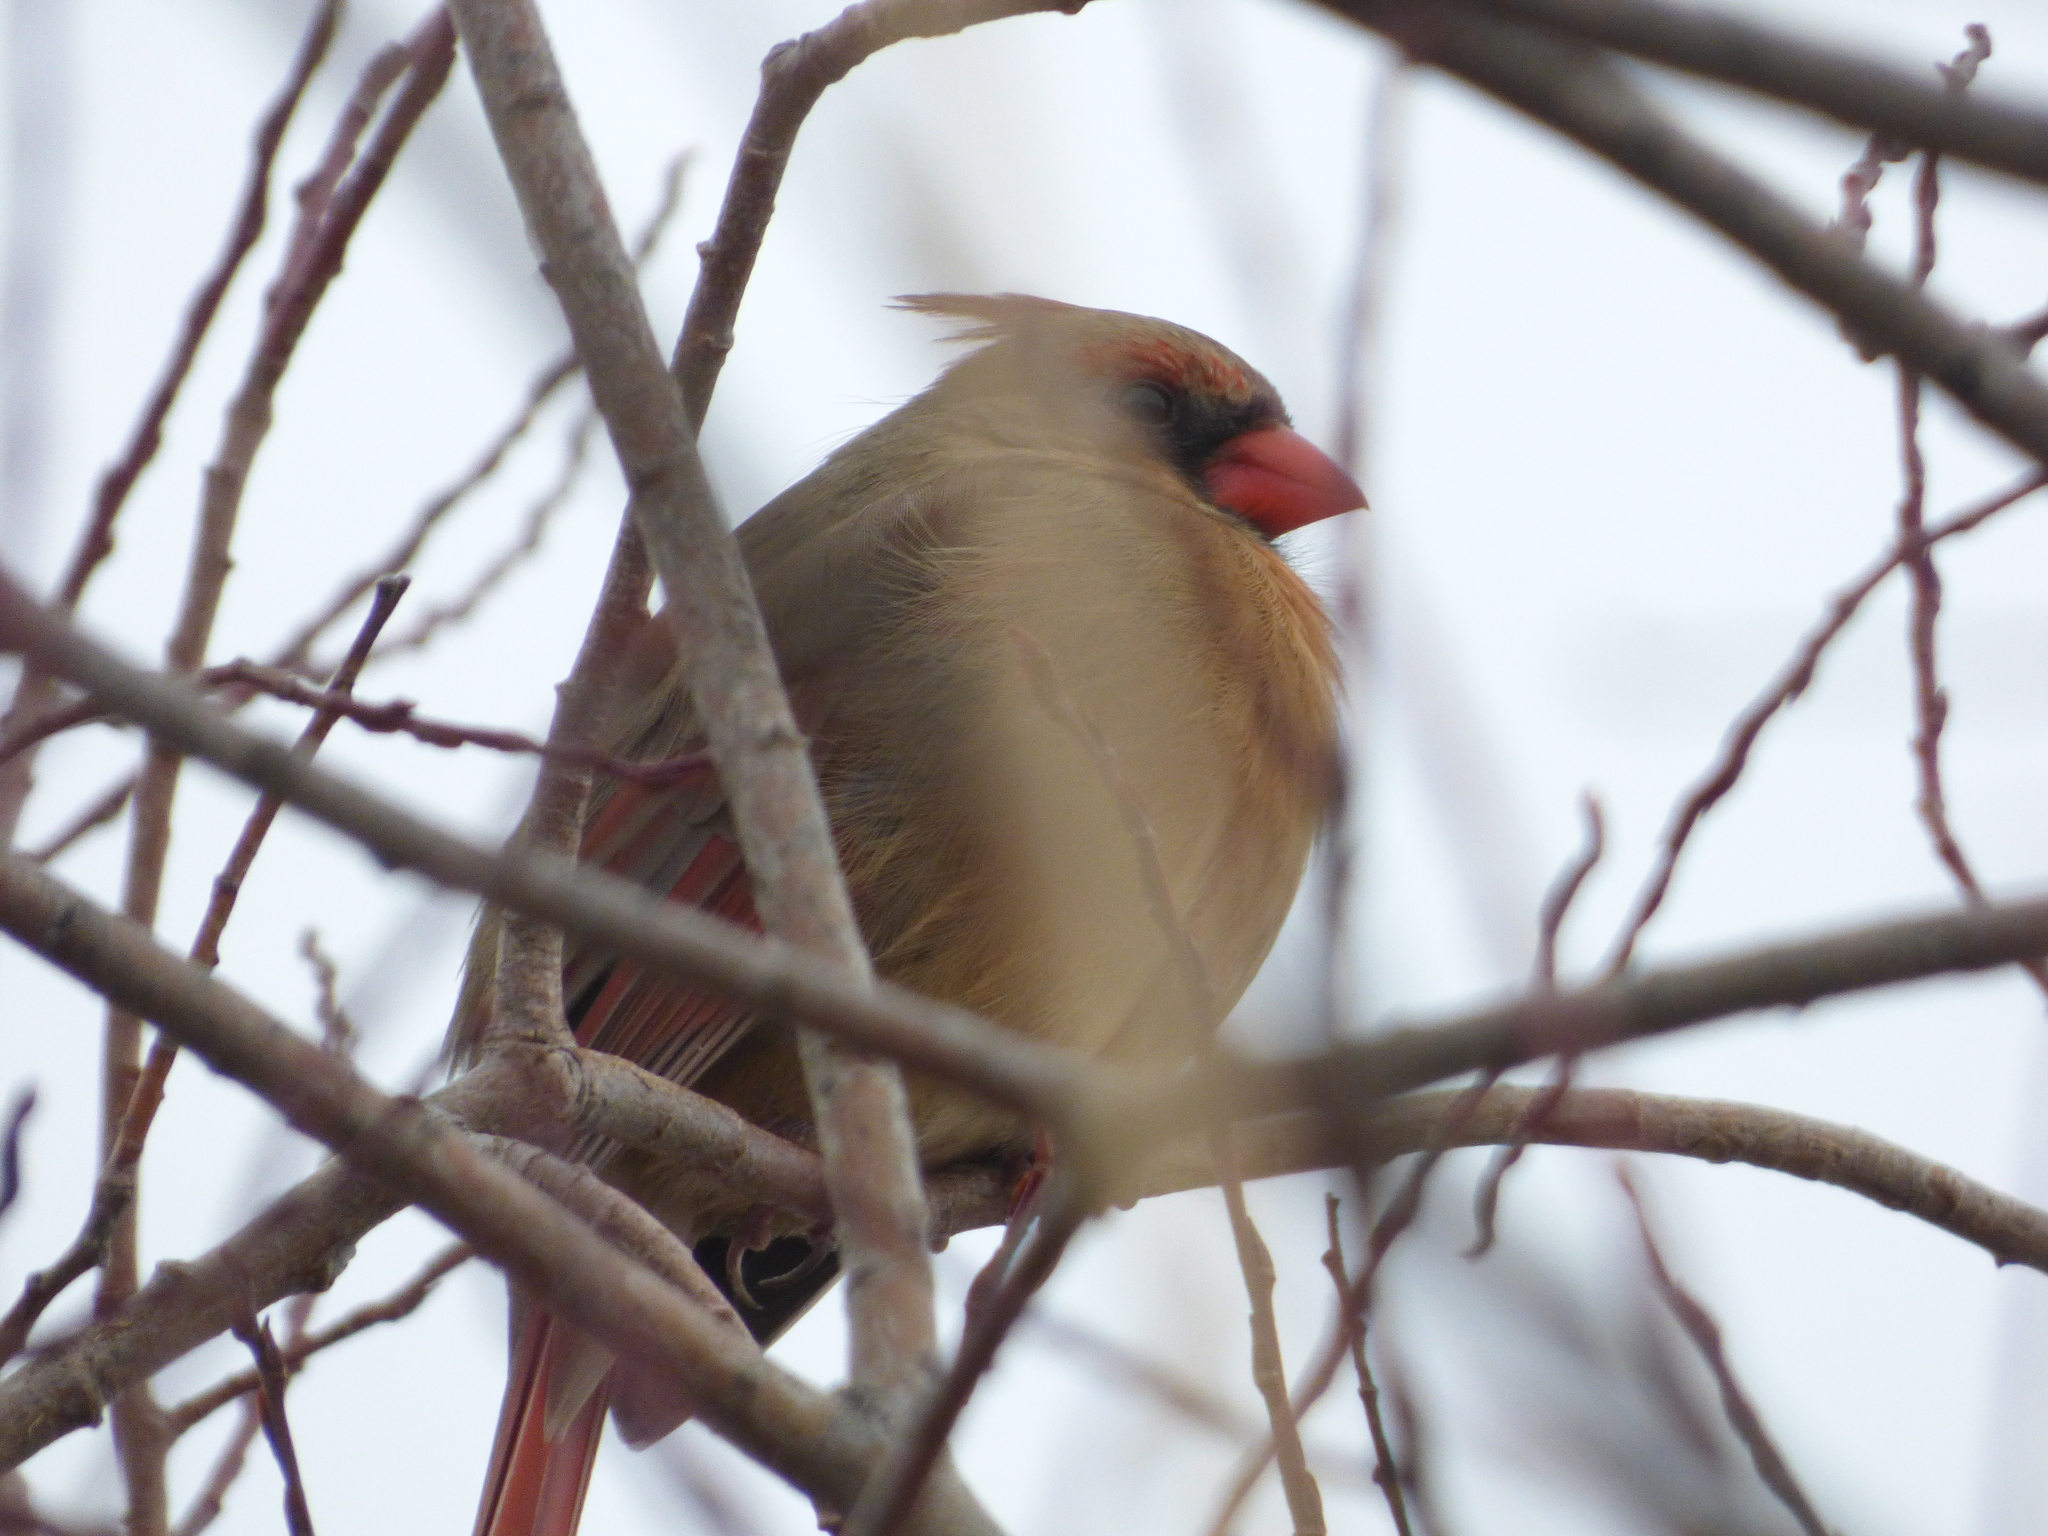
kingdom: Animalia
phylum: Chordata
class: Aves
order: Passeriformes
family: Cardinalidae
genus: Cardinalis
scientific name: Cardinalis cardinalis
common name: Northern cardinal
